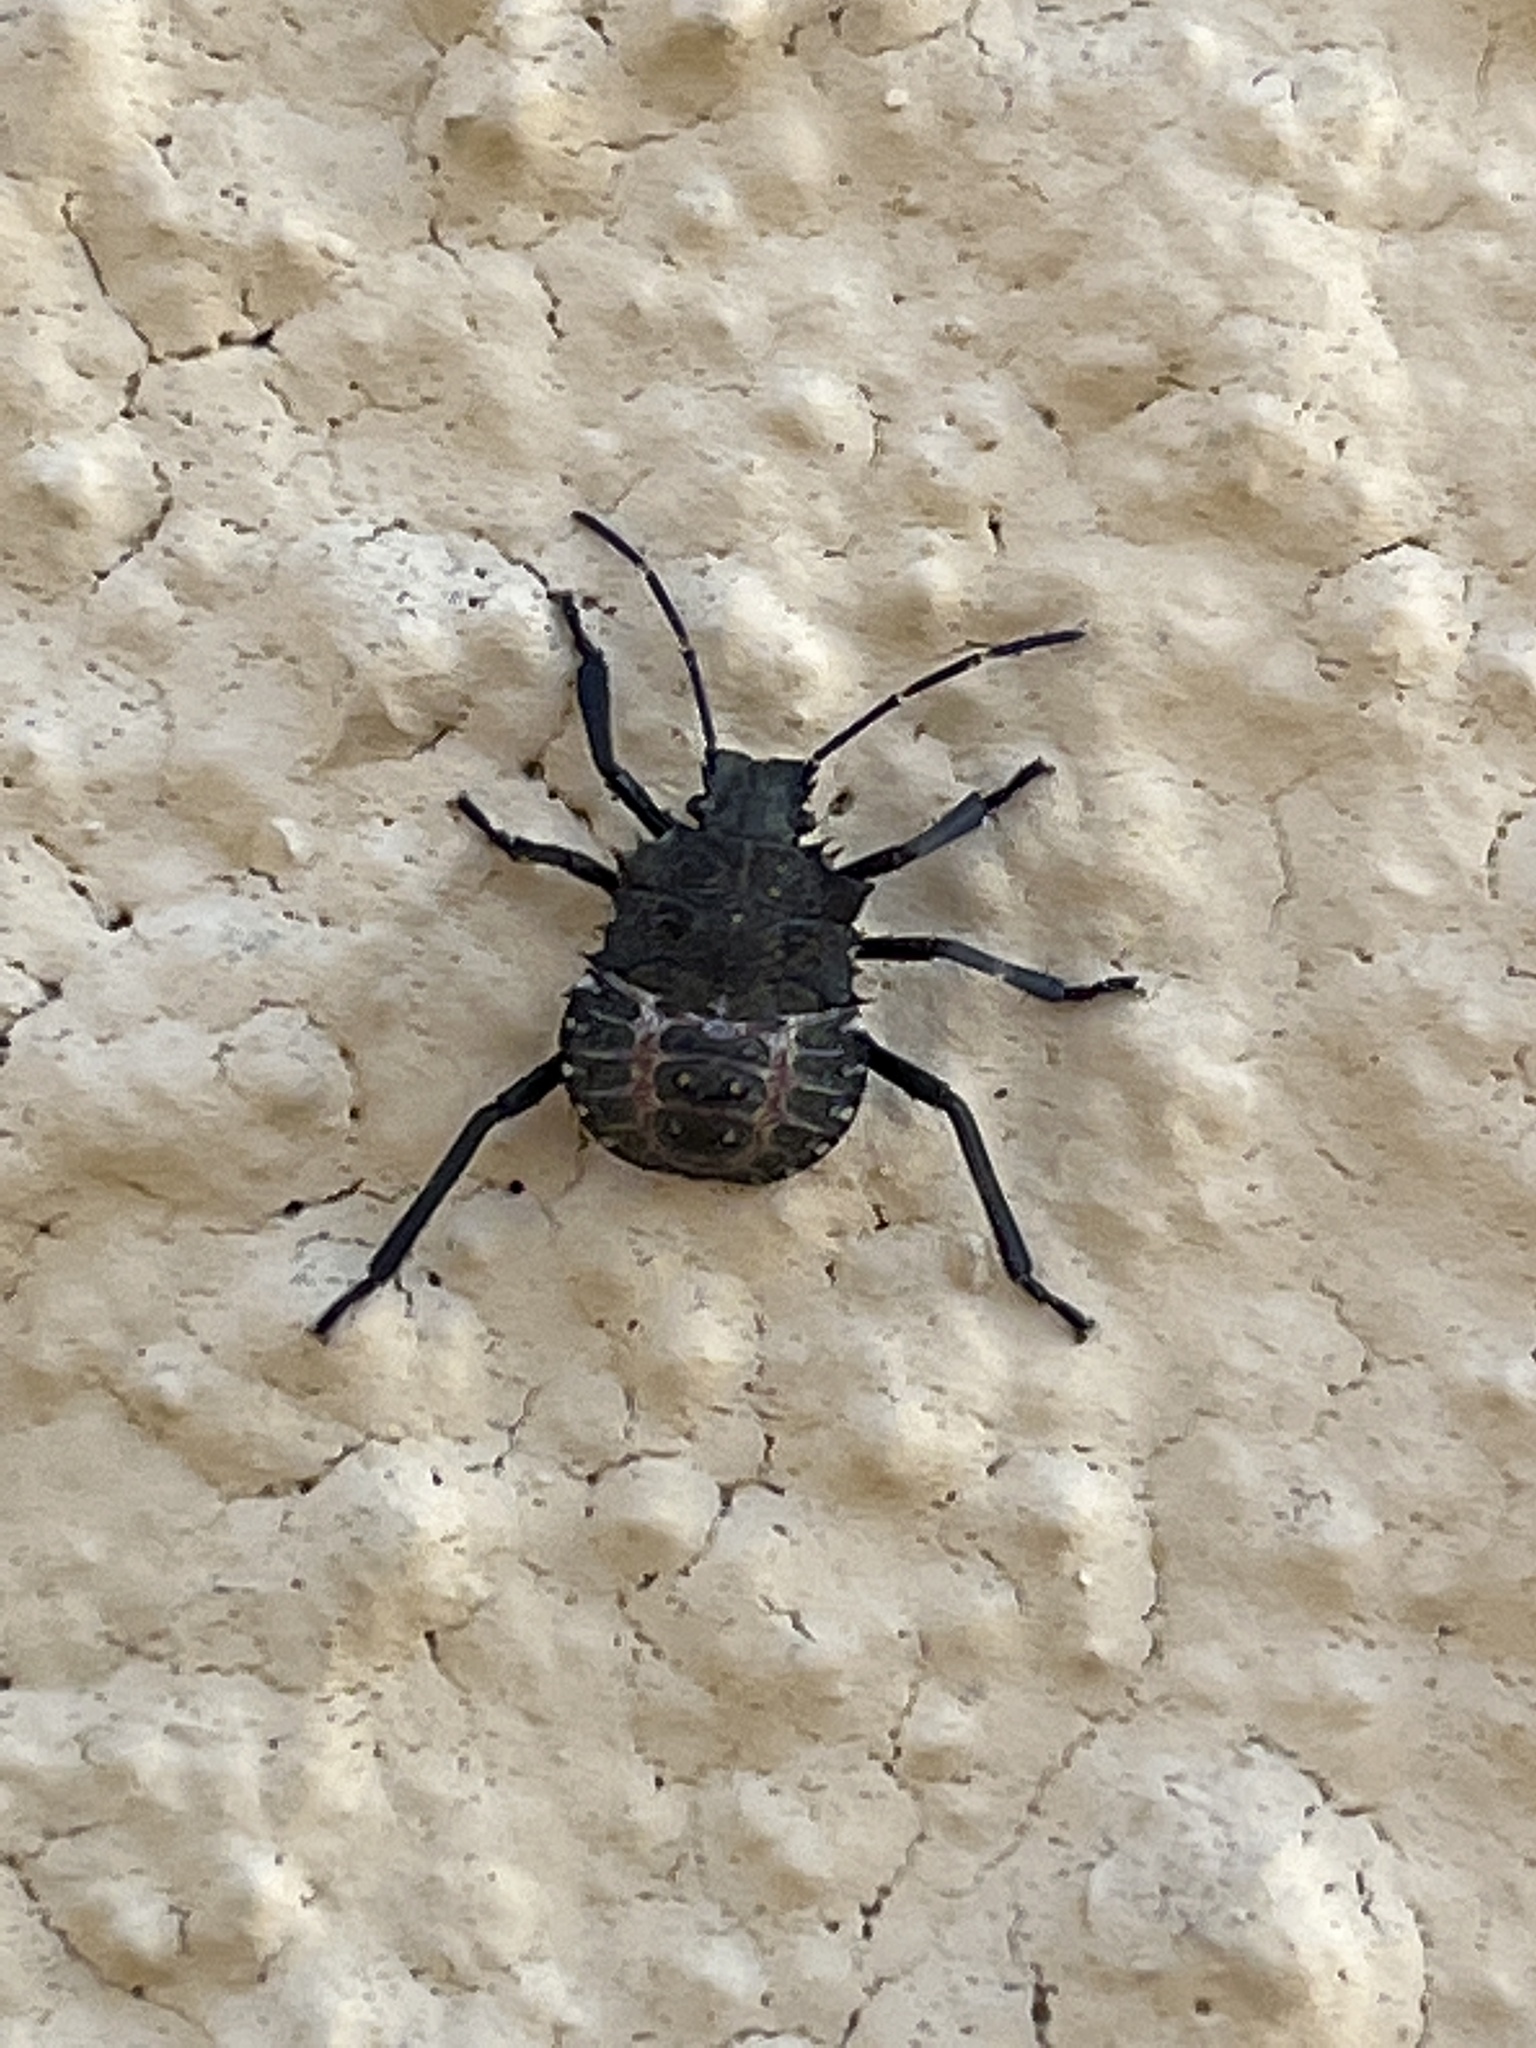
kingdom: Animalia
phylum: Arthropoda
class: Insecta
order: Hemiptera
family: Pentatomidae
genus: Halyomorpha
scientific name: Halyomorpha halys
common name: Brown marmorated stink bug
